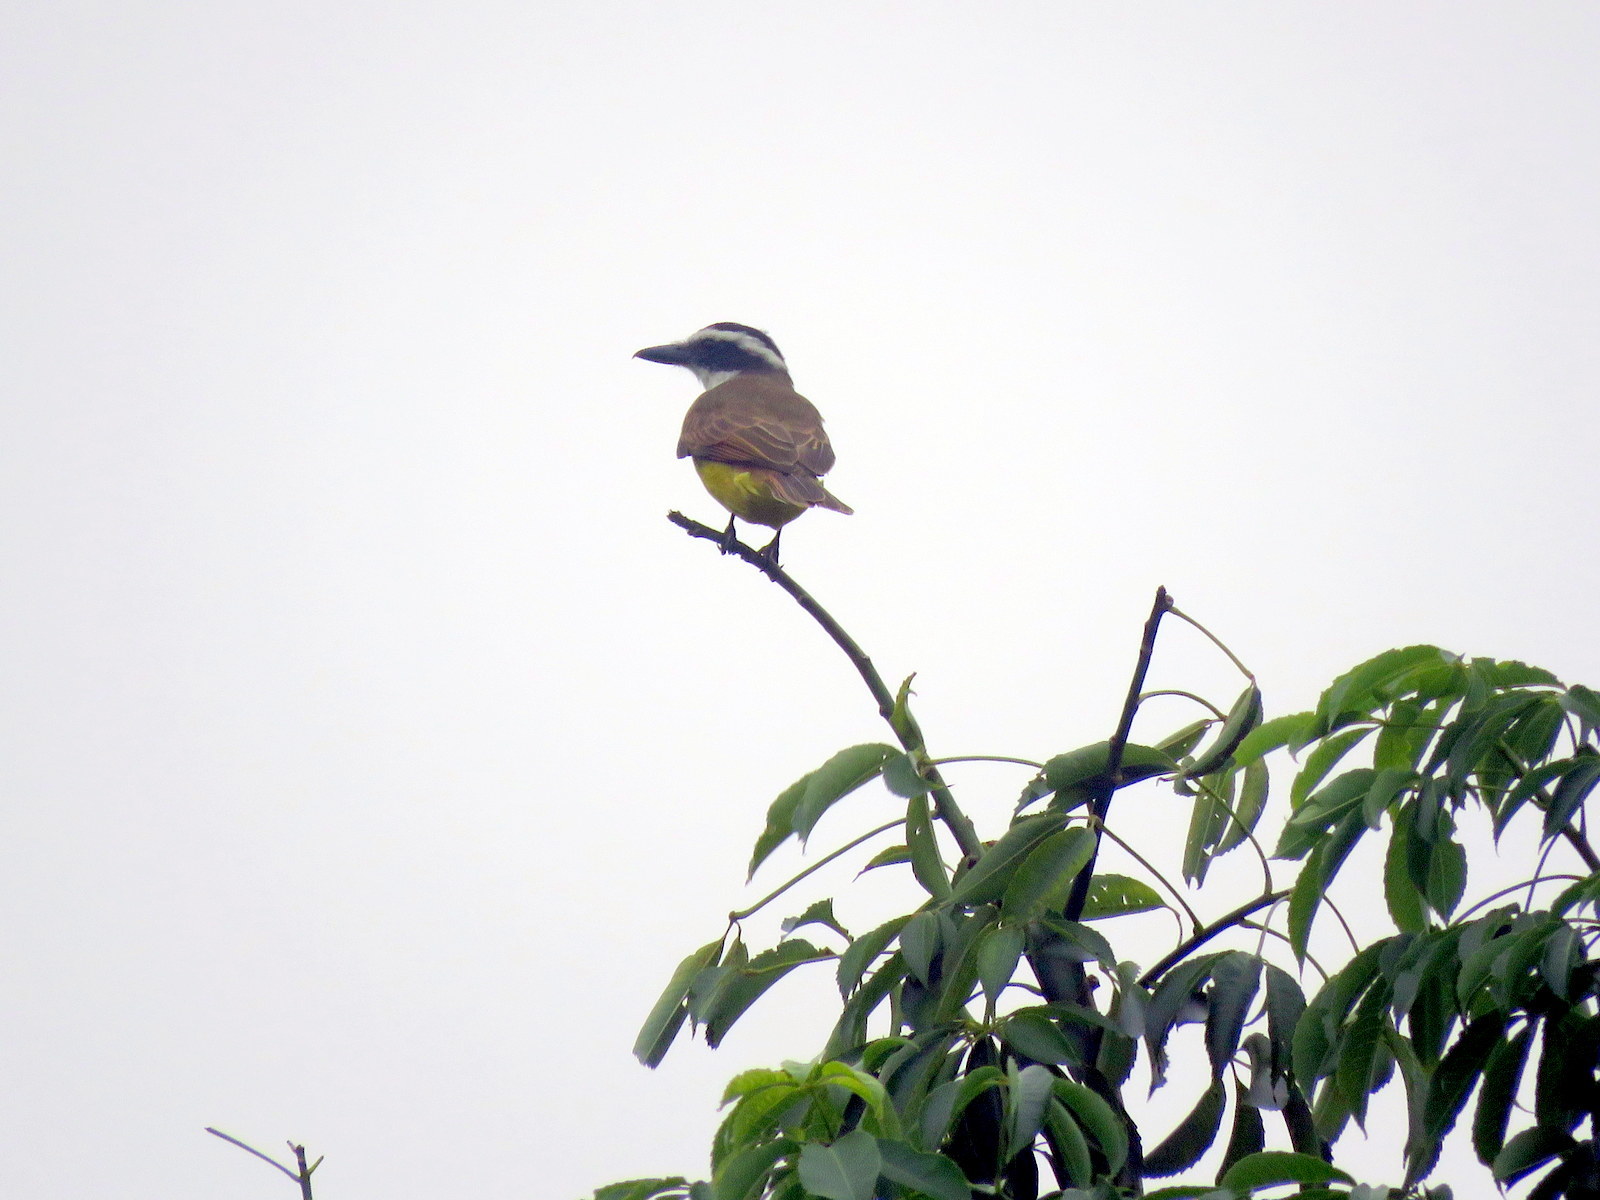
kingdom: Animalia
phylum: Chordata
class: Aves
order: Passeriformes
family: Tyrannidae
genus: Pitangus
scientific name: Pitangus sulphuratus
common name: Great kiskadee
